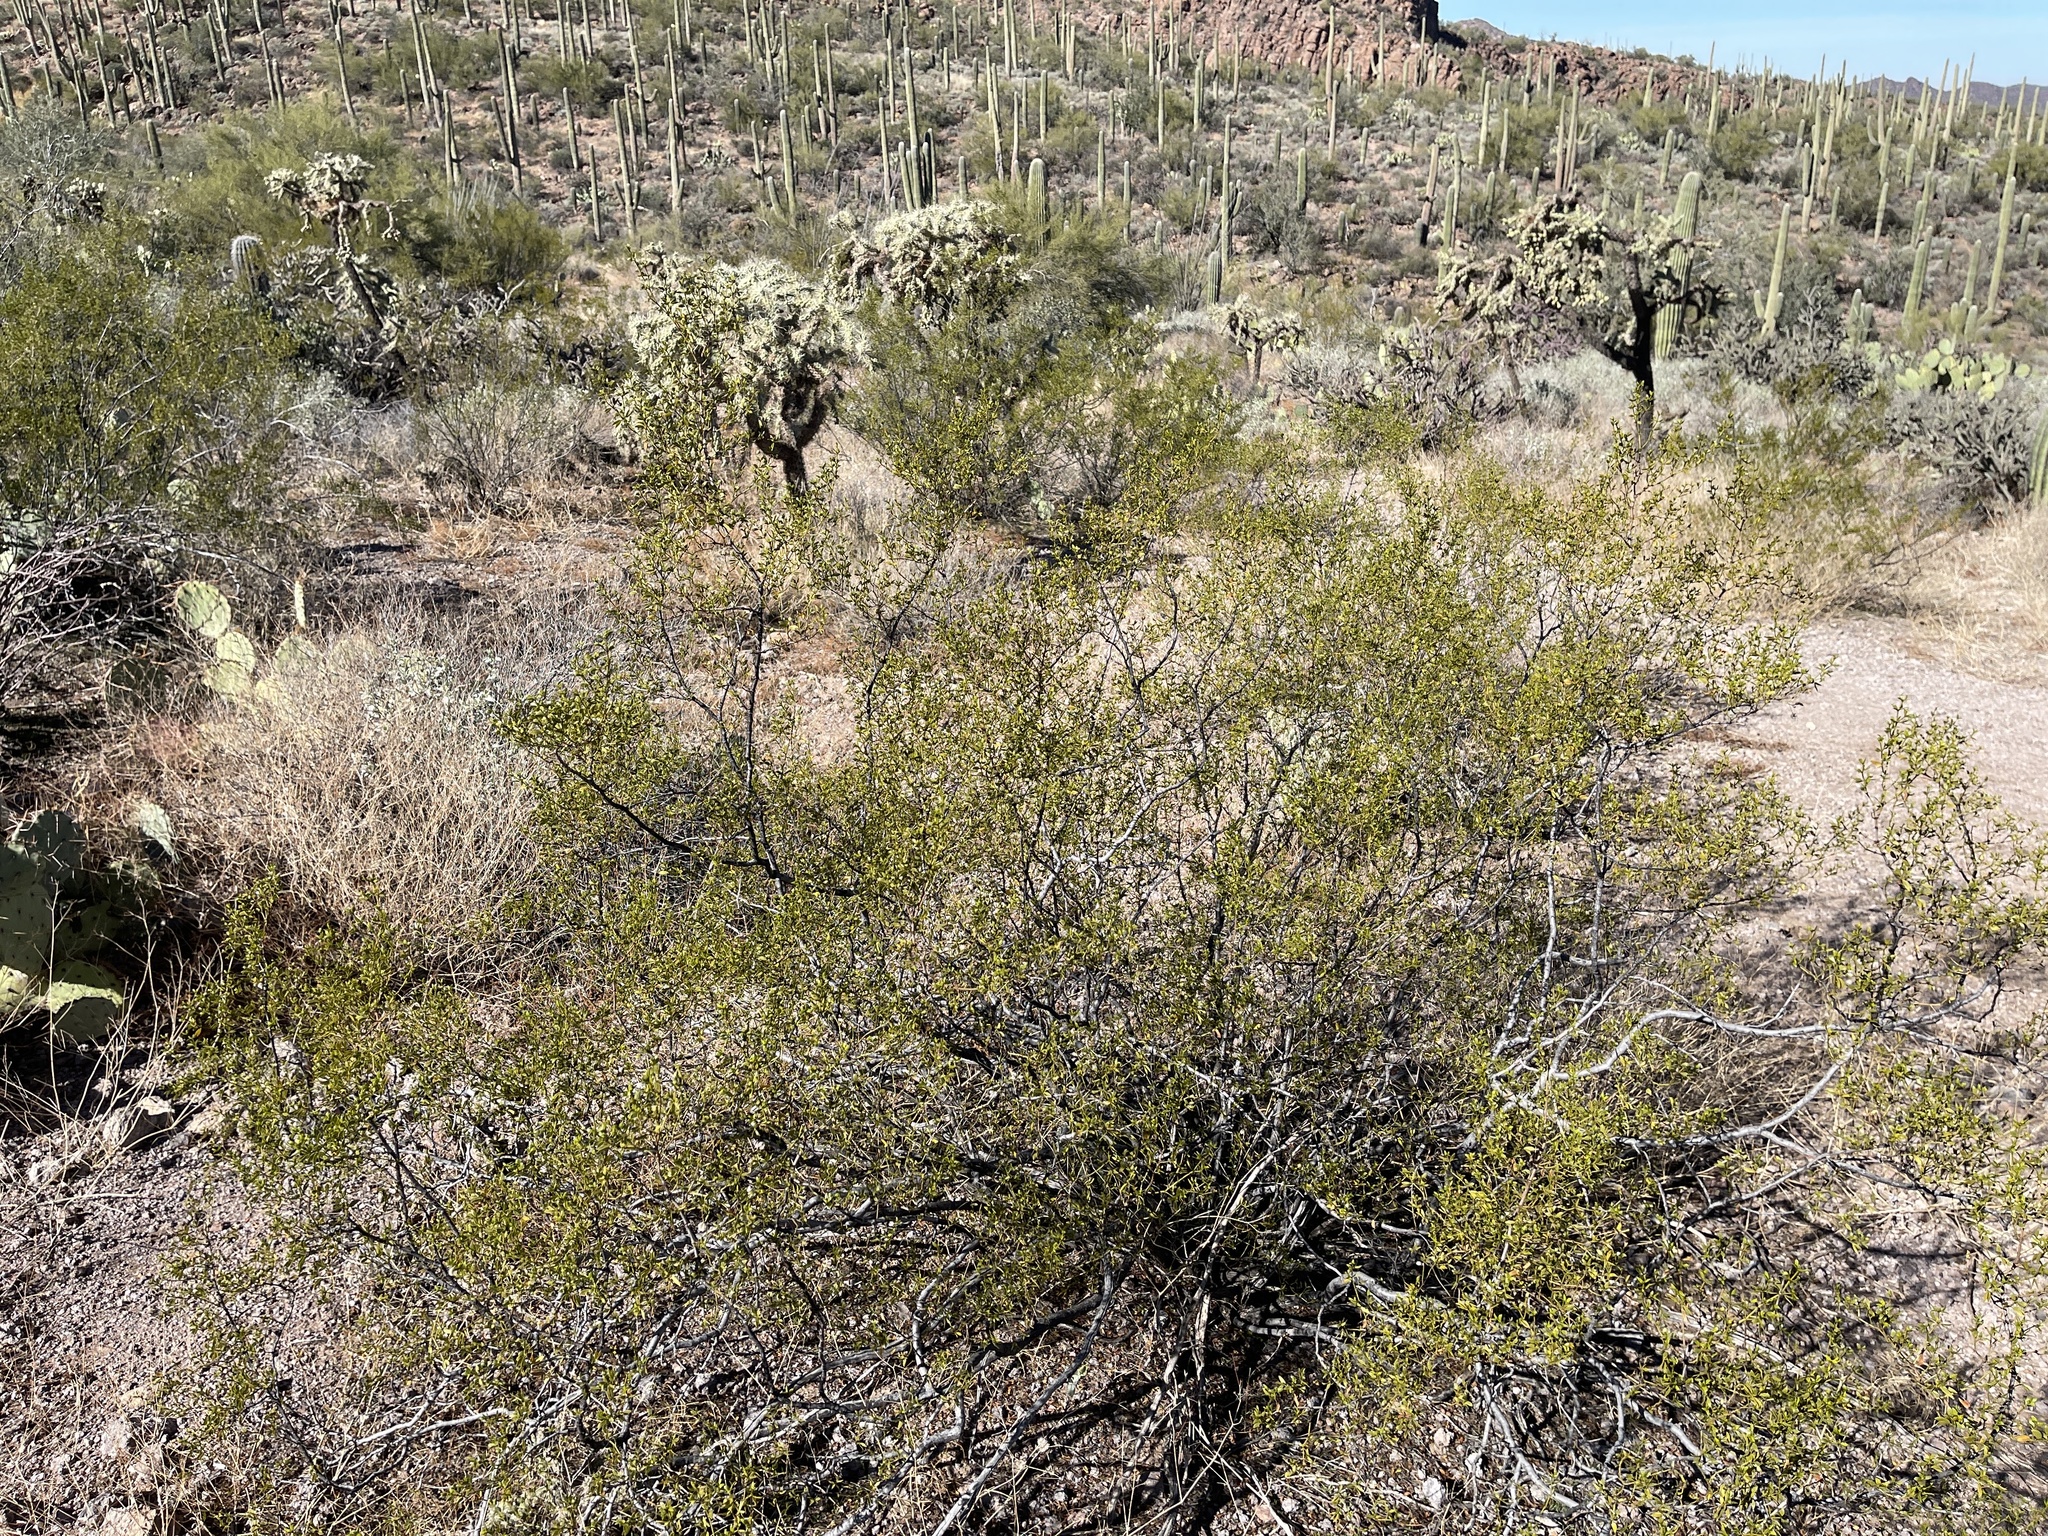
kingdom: Plantae
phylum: Tracheophyta
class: Magnoliopsida
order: Zygophyllales
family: Zygophyllaceae
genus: Larrea
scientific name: Larrea tridentata
